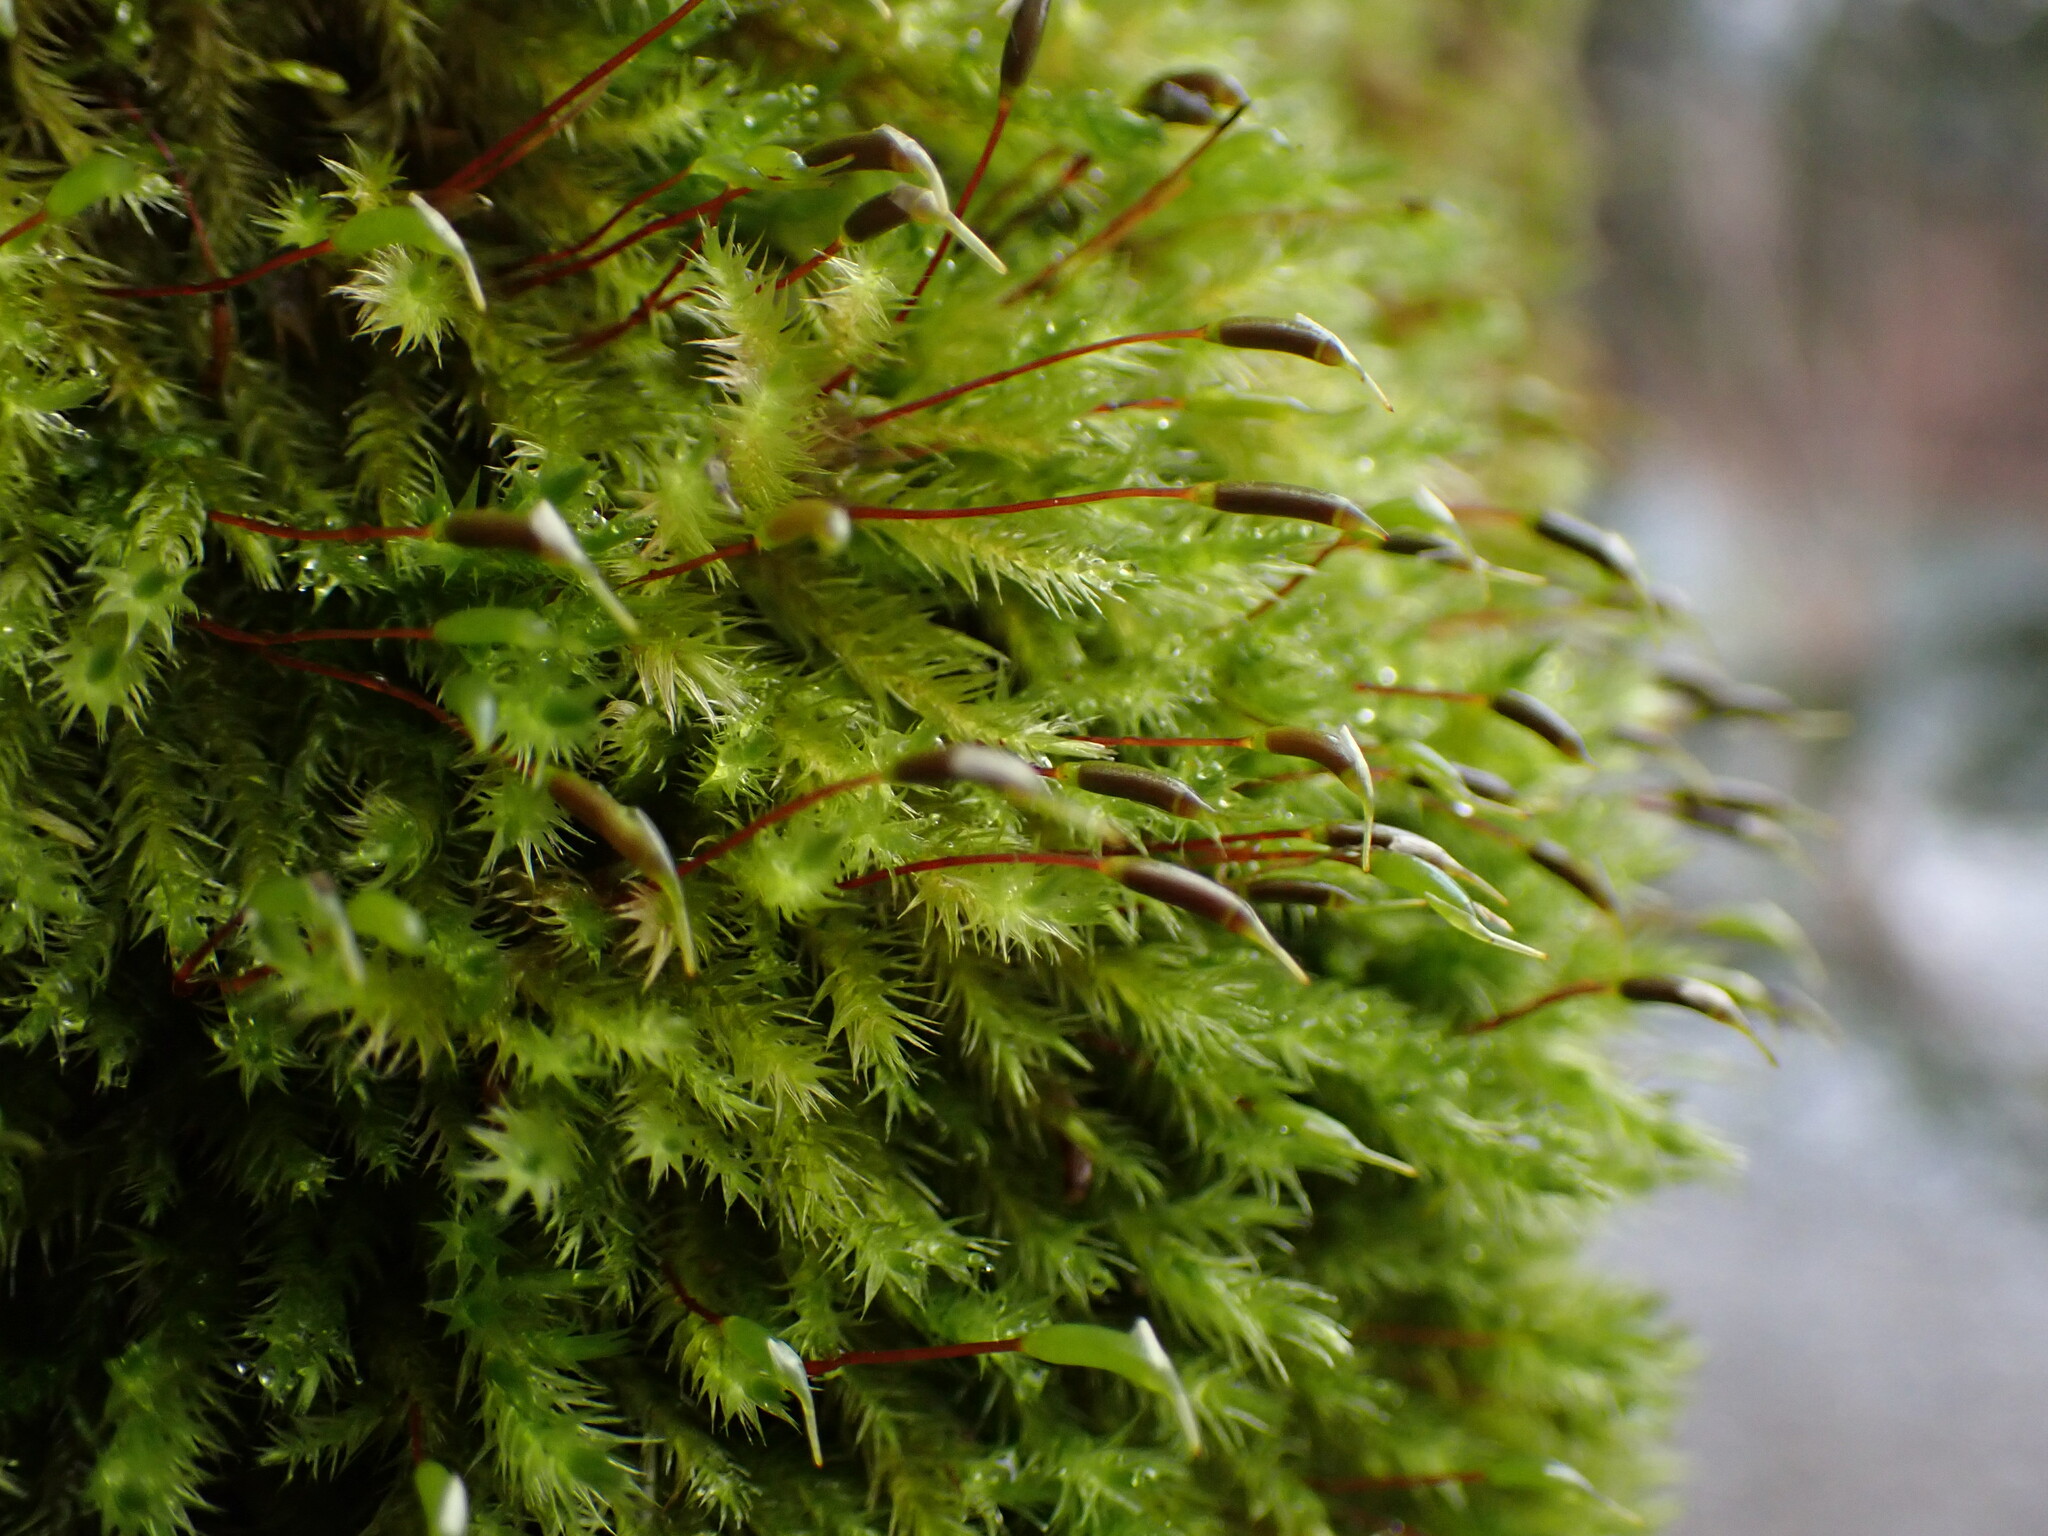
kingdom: Plantae
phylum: Bryophyta
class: Bryopsida
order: Hypnales
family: Brachytheciaceae
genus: Homalothecium
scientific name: Homalothecium fulgescens
